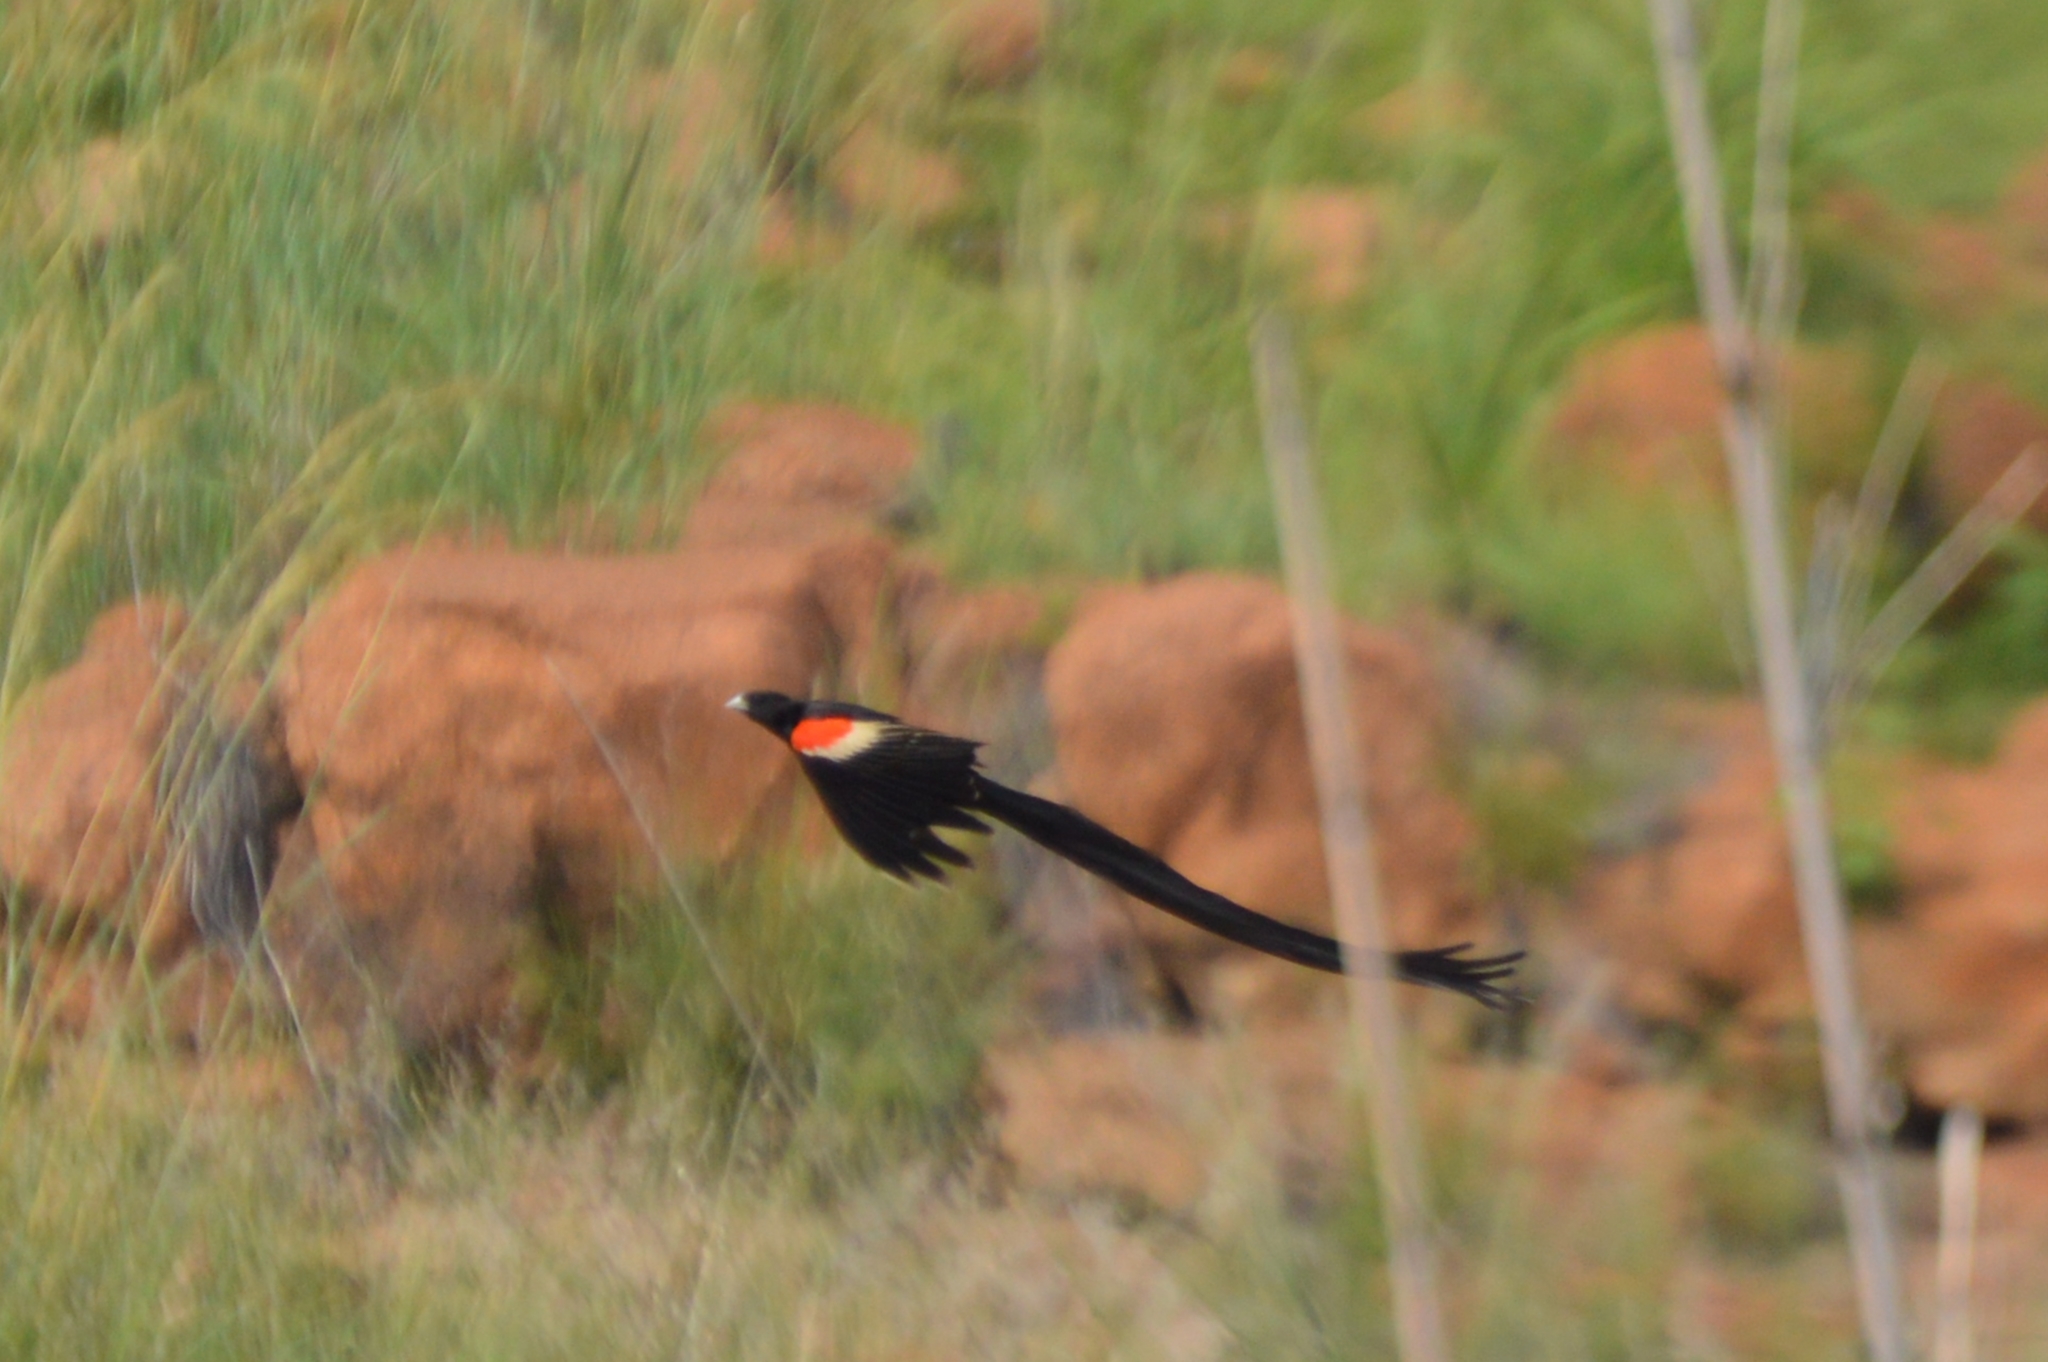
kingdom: Animalia
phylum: Chordata
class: Aves
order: Passeriformes
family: Ploceidae
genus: Euplectes
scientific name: Euplectes progne
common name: Long-tailed widowbird
